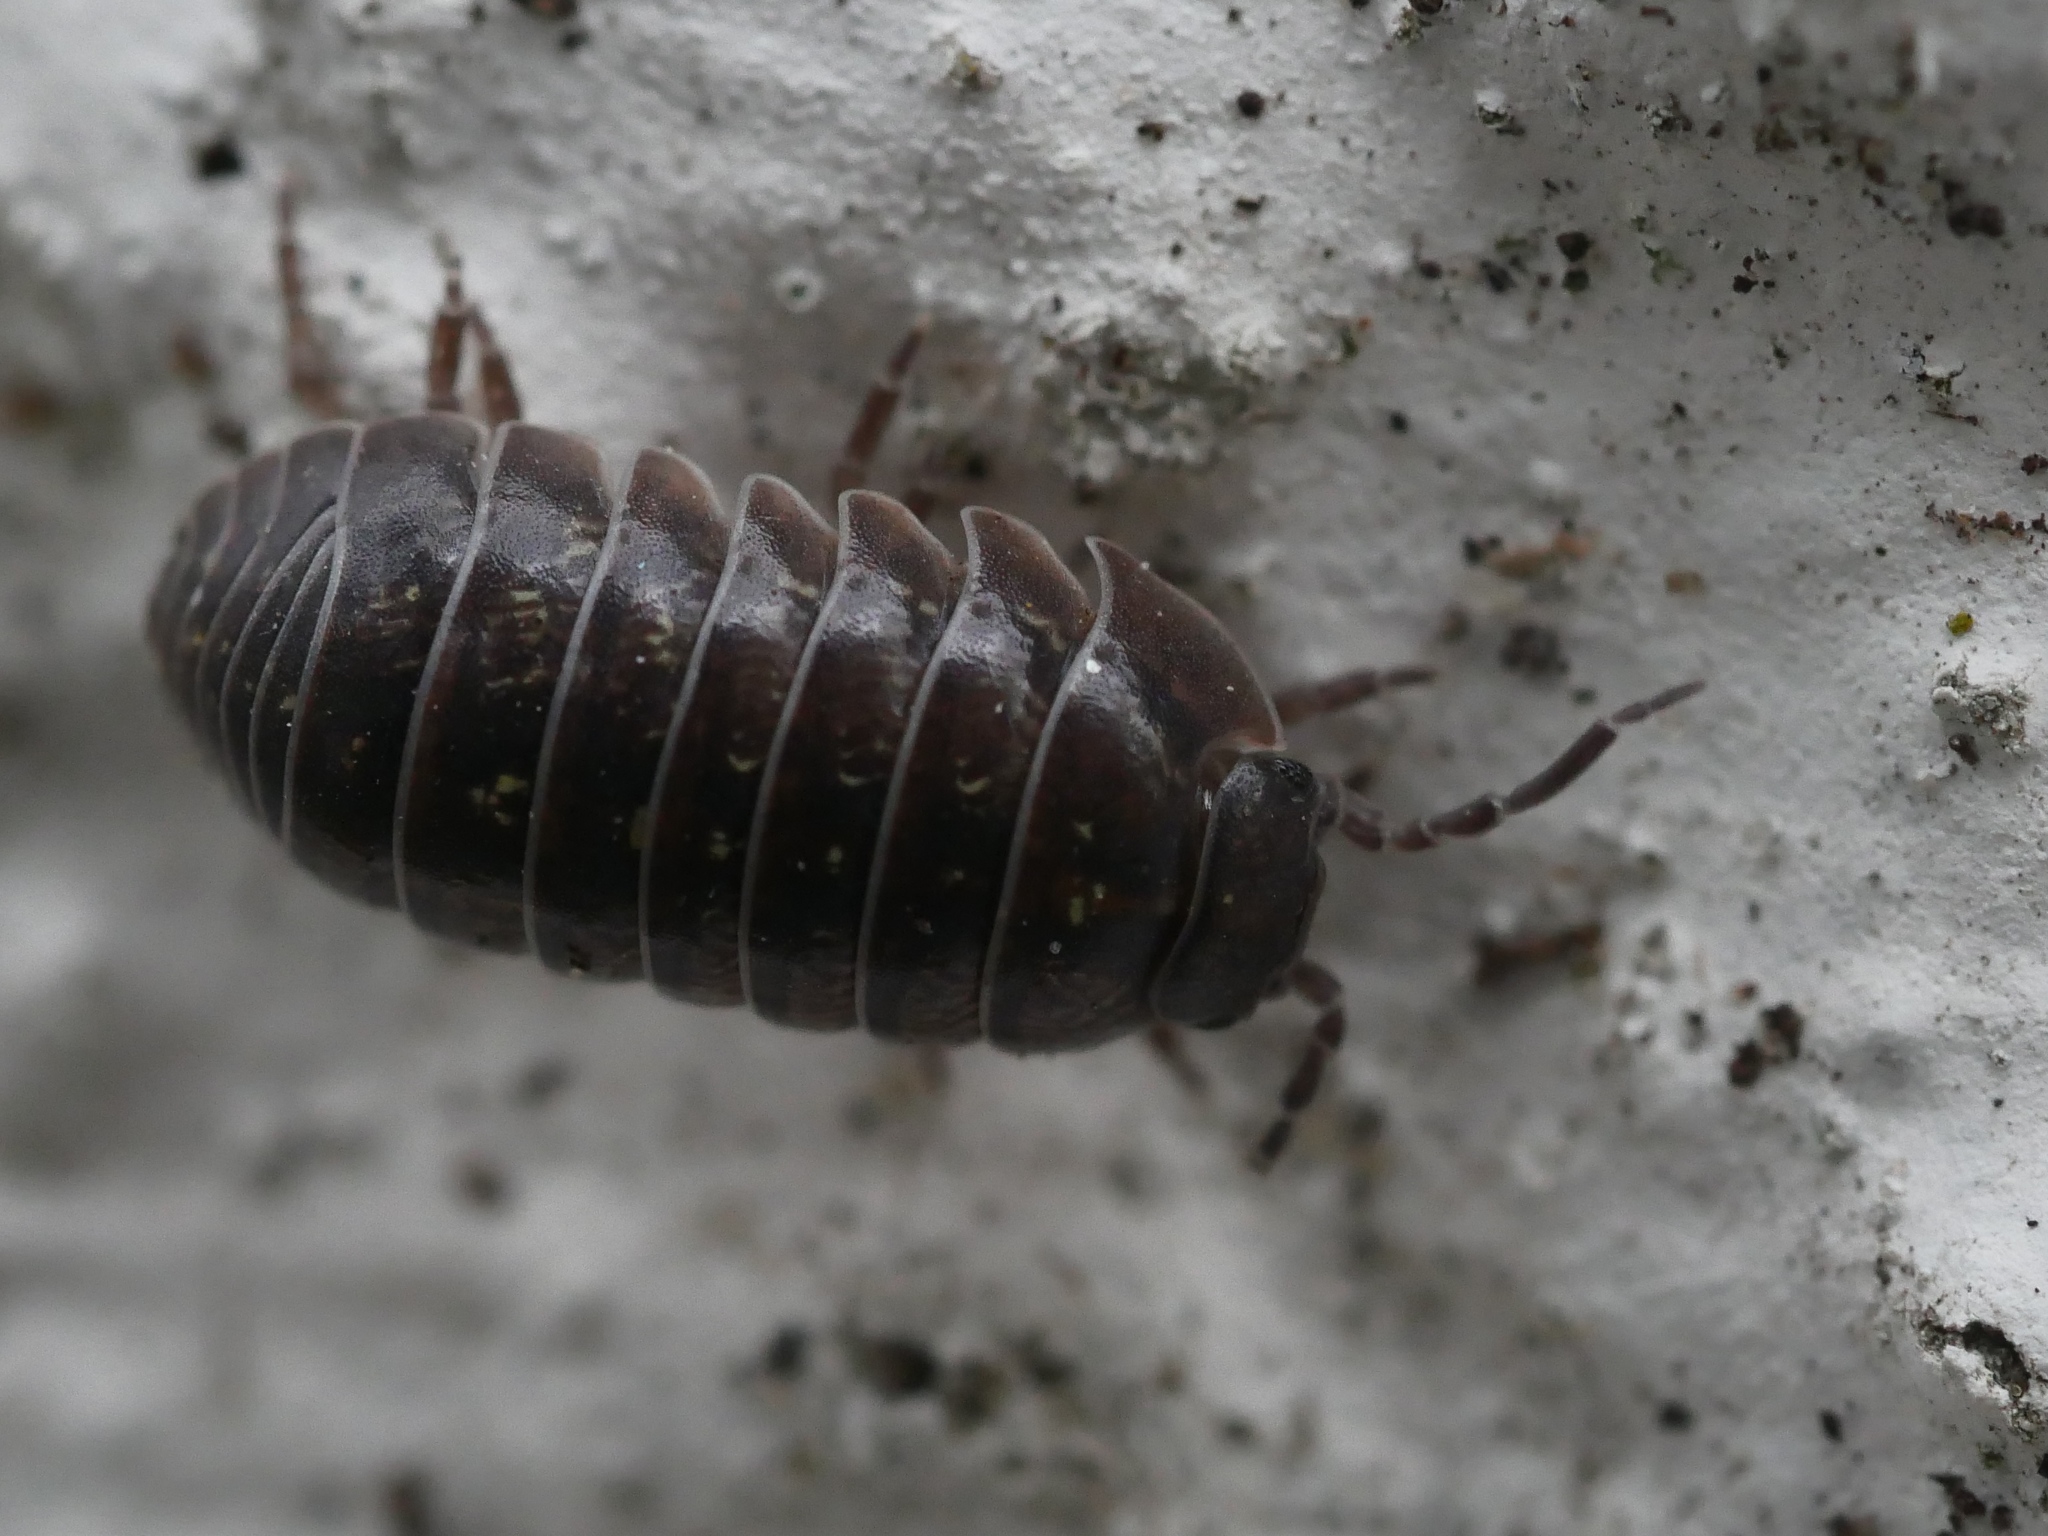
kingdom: Animalia
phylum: Arthropoda
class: Malacostraca
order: Isopoda
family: Armadillidiidae
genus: Armadillidium
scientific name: Armadillidium vulgare
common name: Common pill woodlouse
